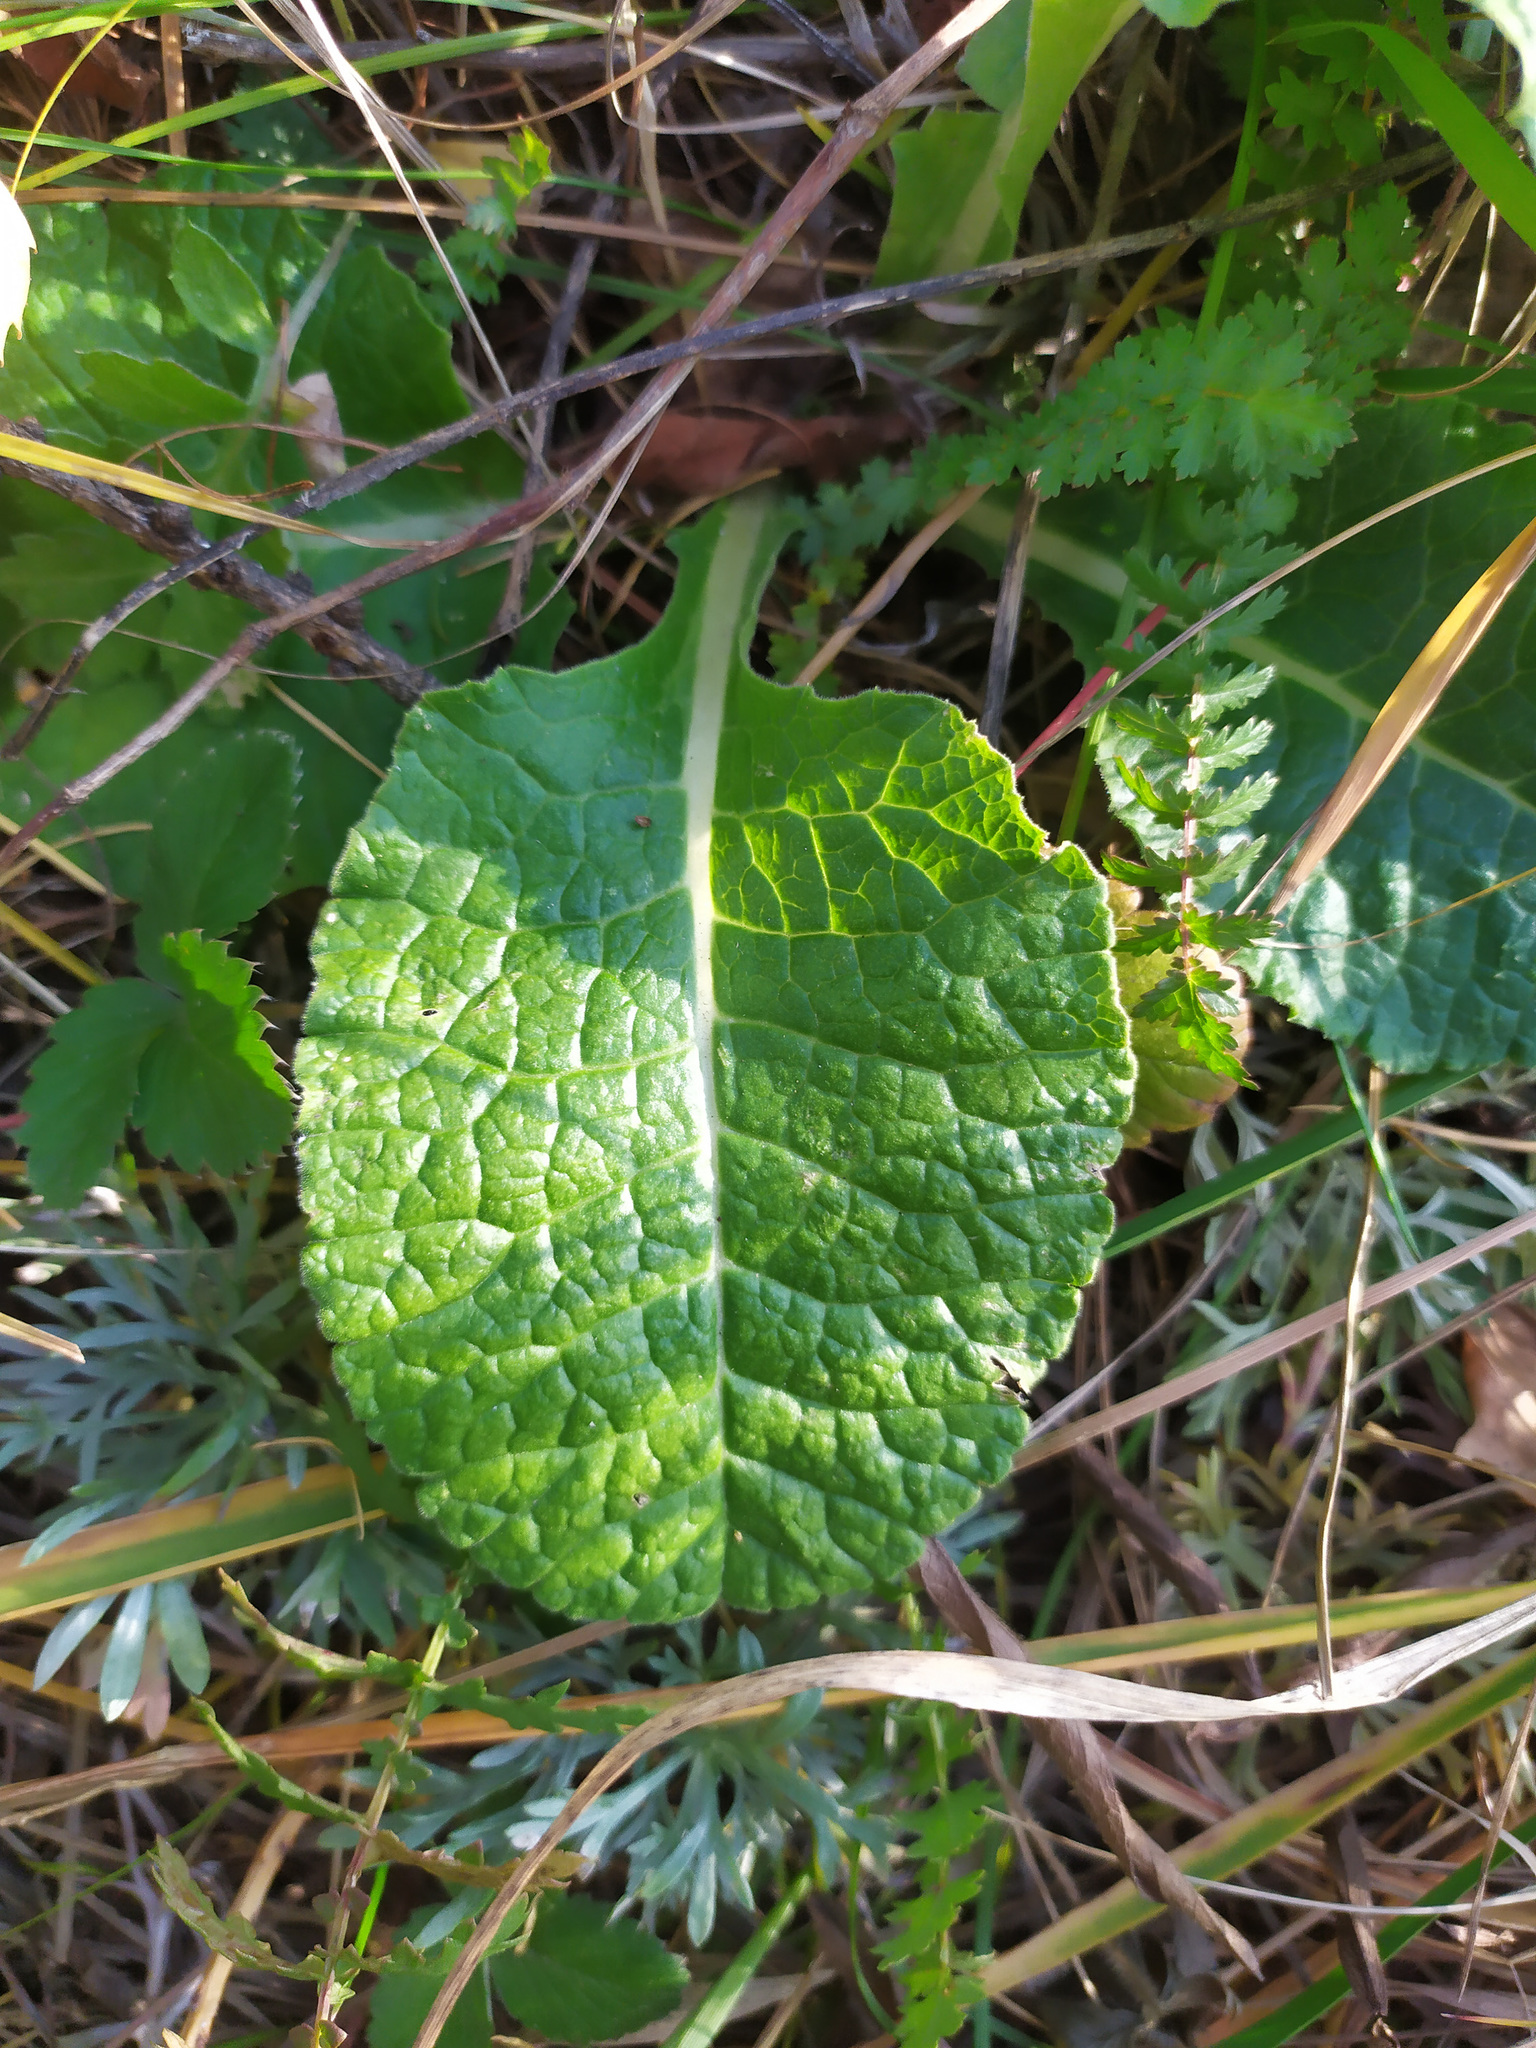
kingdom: Plantae
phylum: Tracheophyta
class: Magnoliopsida
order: Ericales
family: Primulaceae
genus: Primula
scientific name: Primula veris
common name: Cowslip
